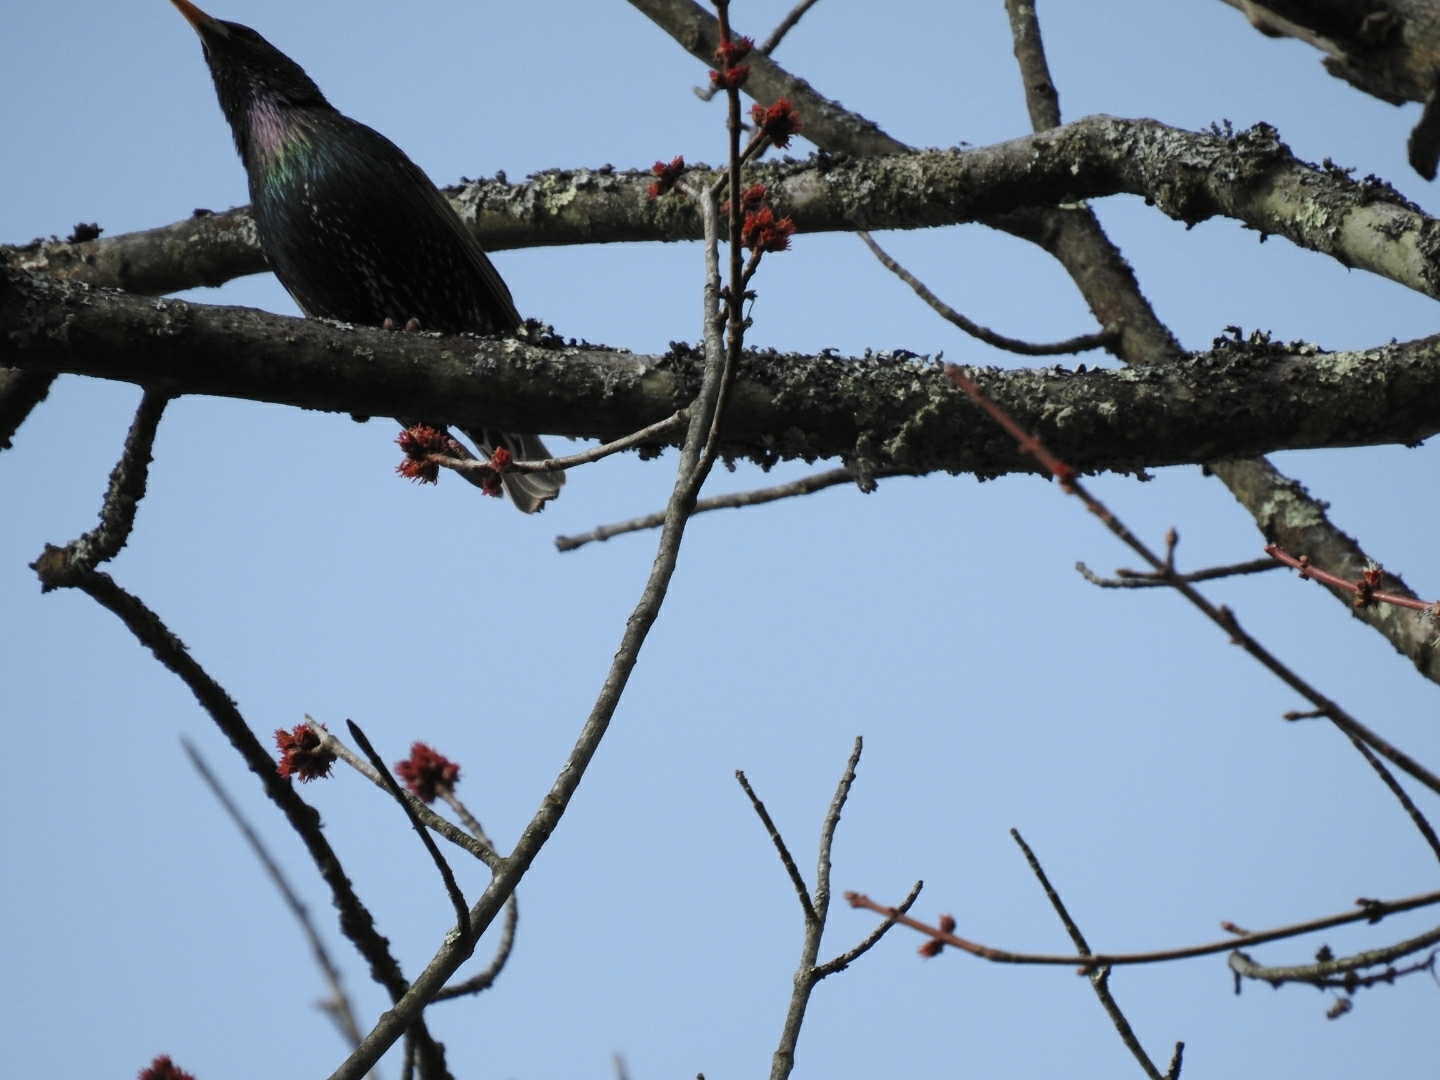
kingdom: Animalia
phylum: Chordata
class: Aves
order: Passeriformes
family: Sturnidae
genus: Sturnus
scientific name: Sturnus vulgaris
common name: Common starling
